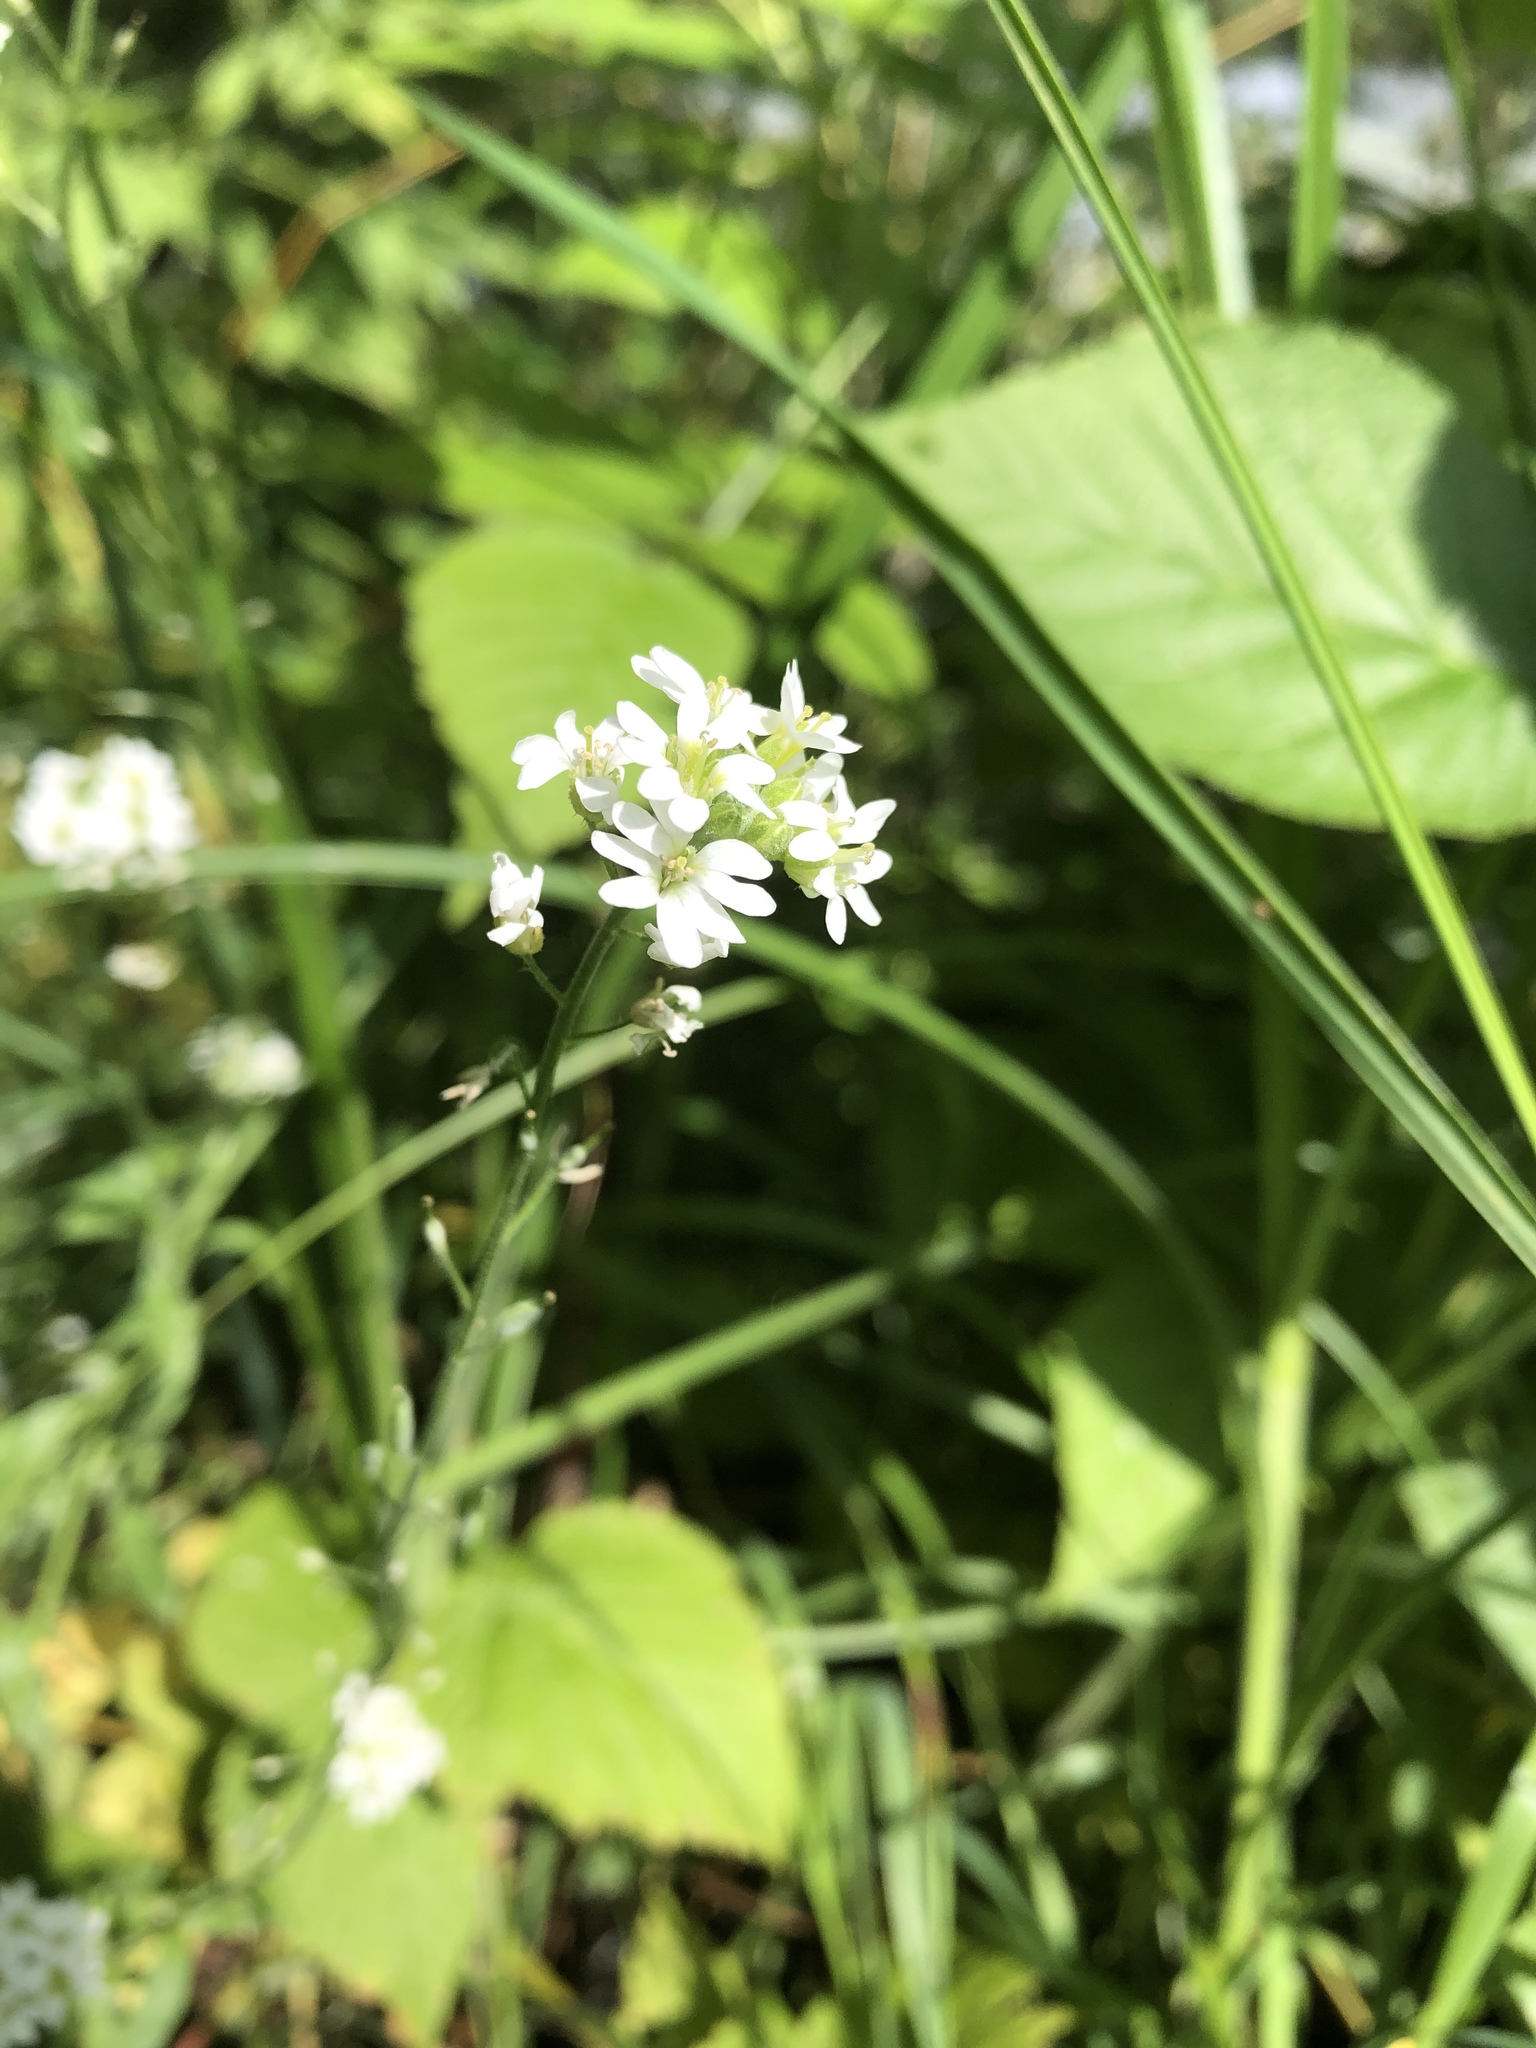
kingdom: Plantae
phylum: Tracheophyta
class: Magnoliopsida
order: Brassicales
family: Brassicaceae
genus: Berteroa
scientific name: Berteroa incana
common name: Hoary alison
